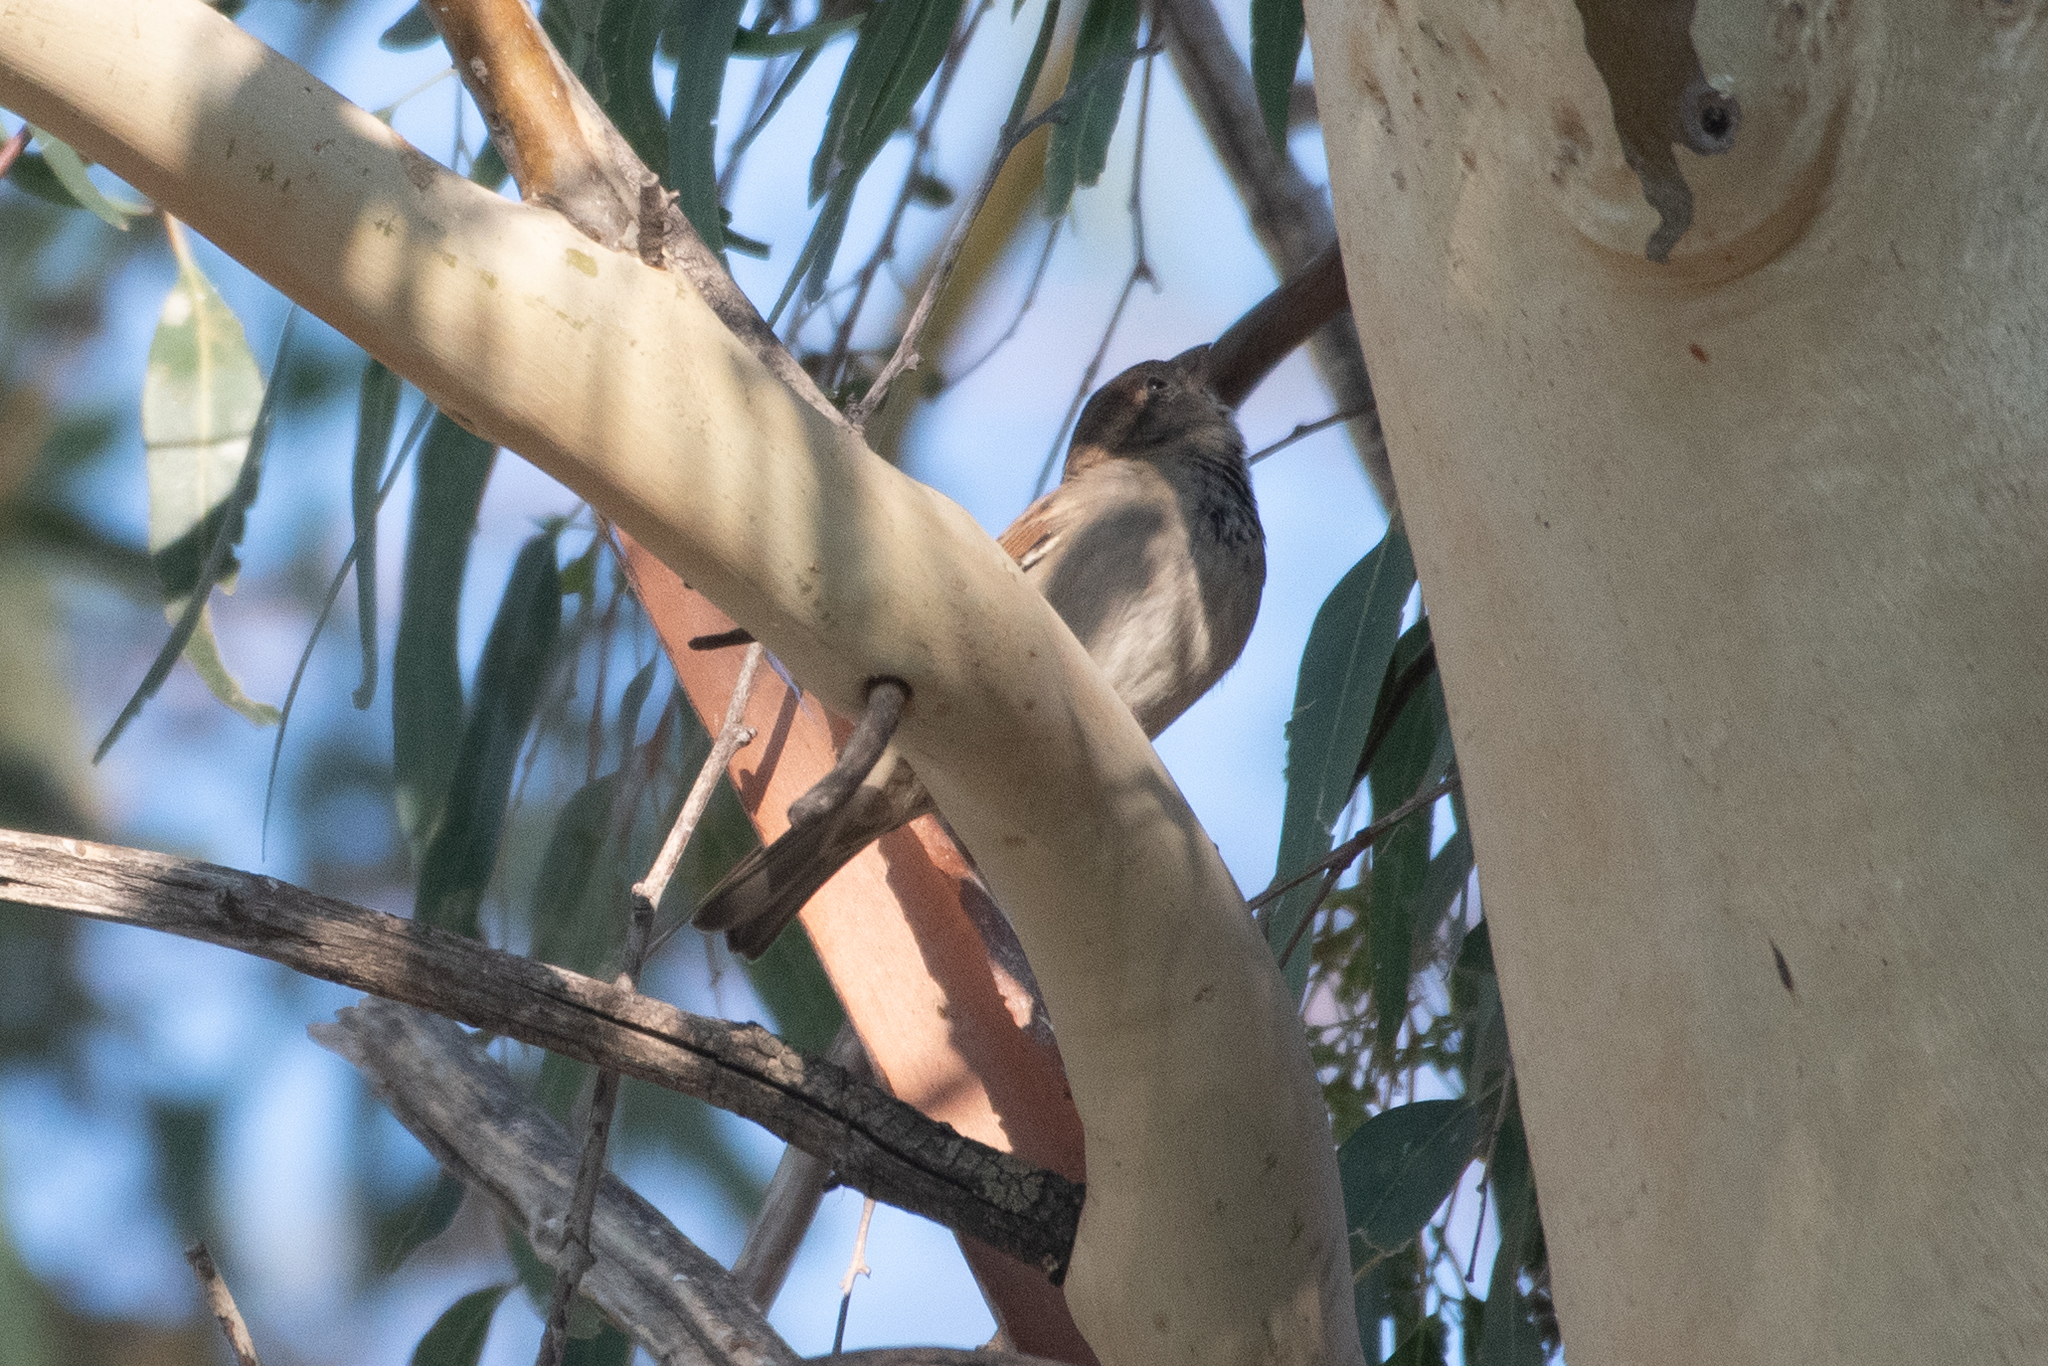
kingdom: Animalia
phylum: Chordata
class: Aves
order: Passeriformes
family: Passeridae
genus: Passer
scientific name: Passer domesticus
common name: House sparrow
